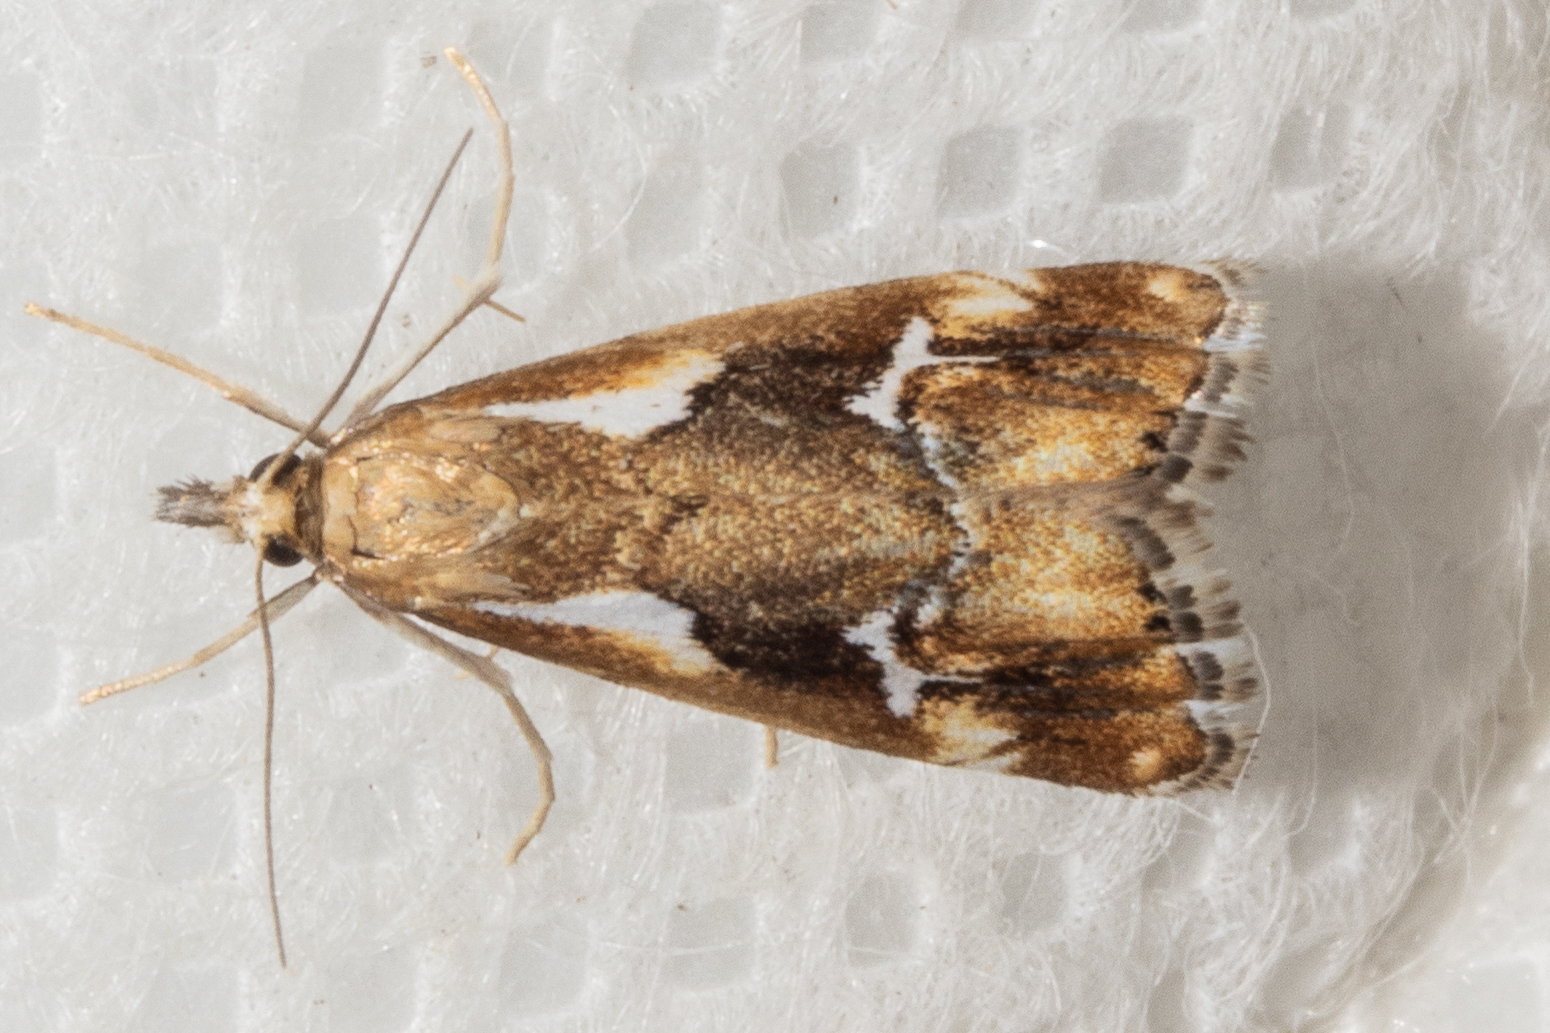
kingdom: Animalia
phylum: Arthropoda
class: Insecta
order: Lepidoptera
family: Crambidae
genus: Glaucocharis
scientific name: Glaucocharis interruptus
